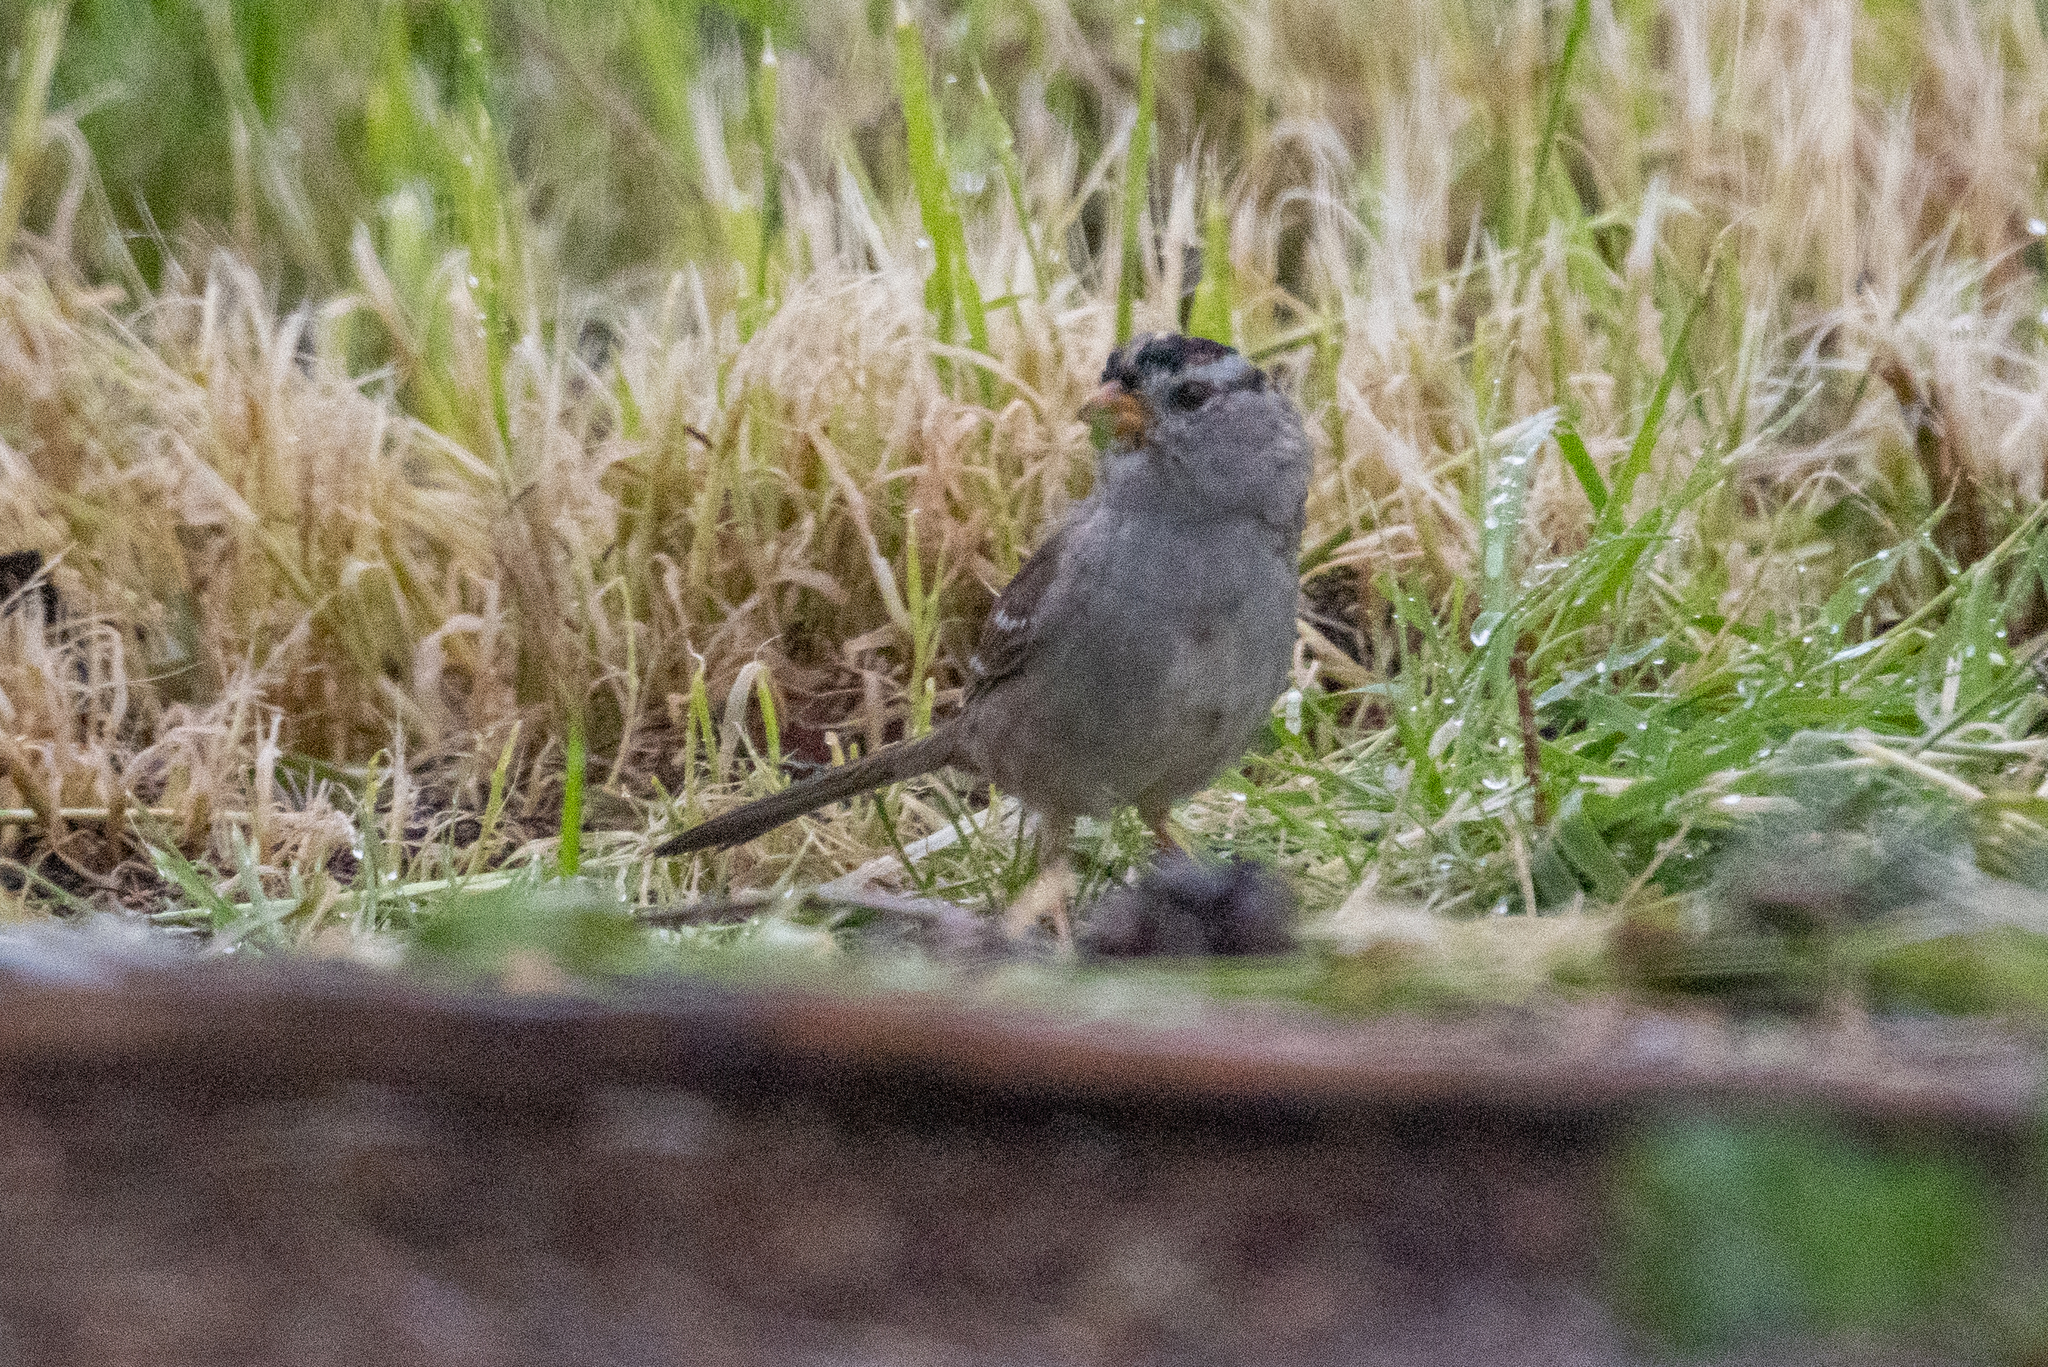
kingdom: Animalia
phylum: Chordata
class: Aves
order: Passeriformes
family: Passerellidae
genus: Zonotrichia
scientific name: Zonotrichia leucophrys
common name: White-crowned sparrow
